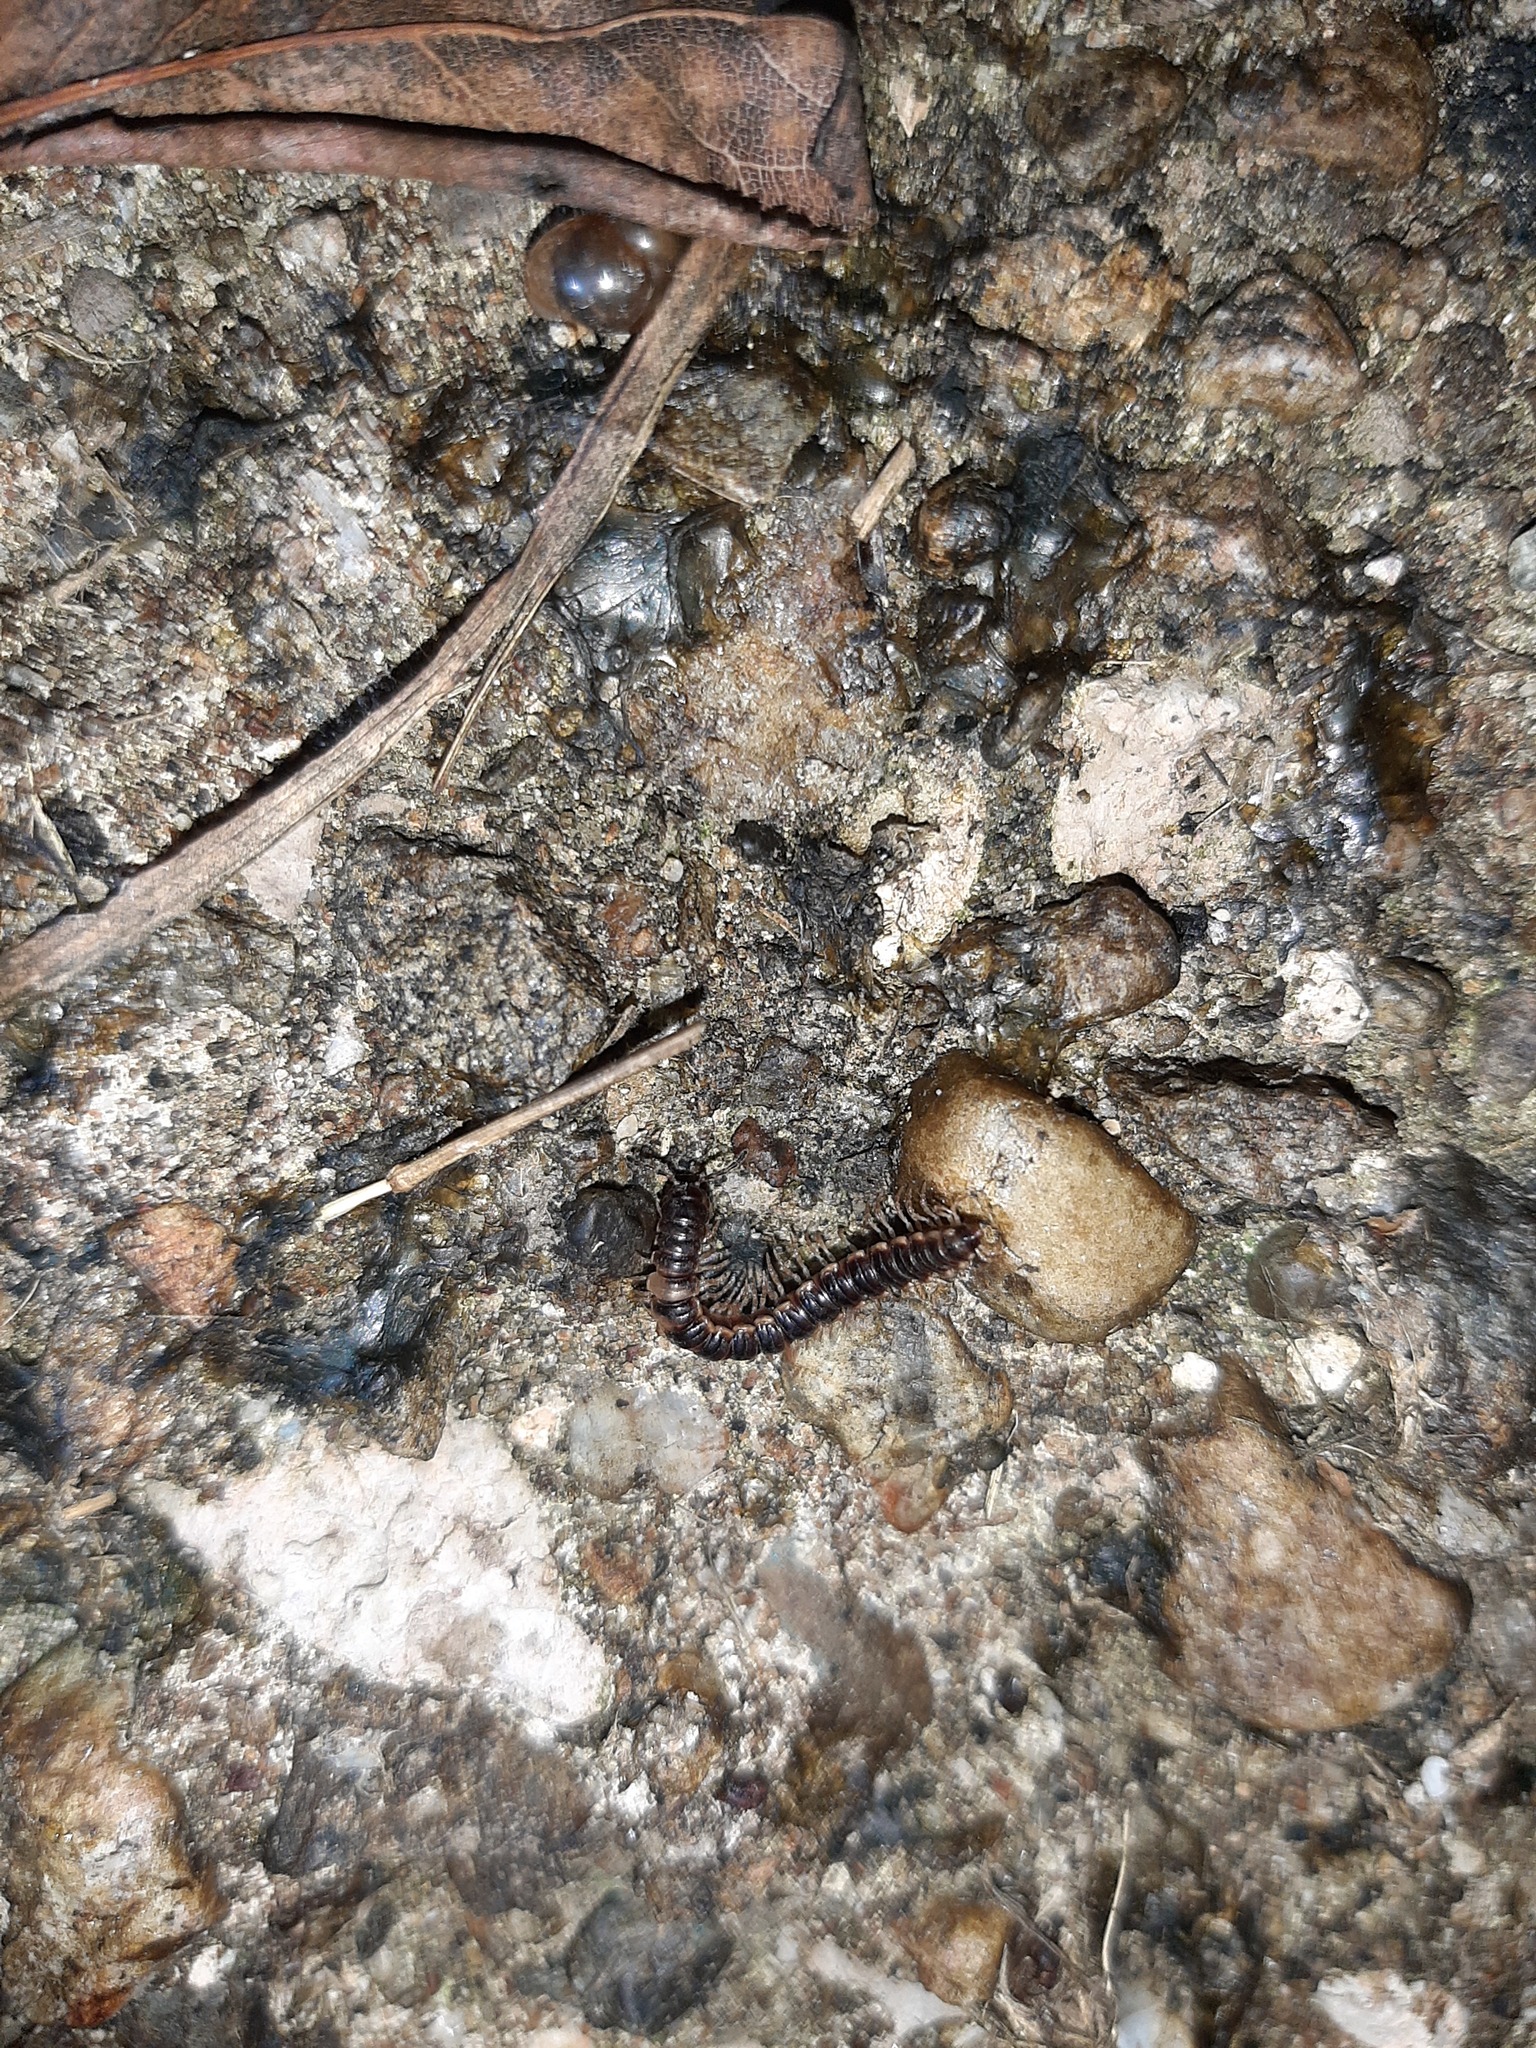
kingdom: Animalia
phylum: Arthropoda
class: Diplopoda
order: Polydesmida
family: Paradoxosomatidae
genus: Oxidus
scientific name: Oxidus gracilis
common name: Greenhouse millipede
